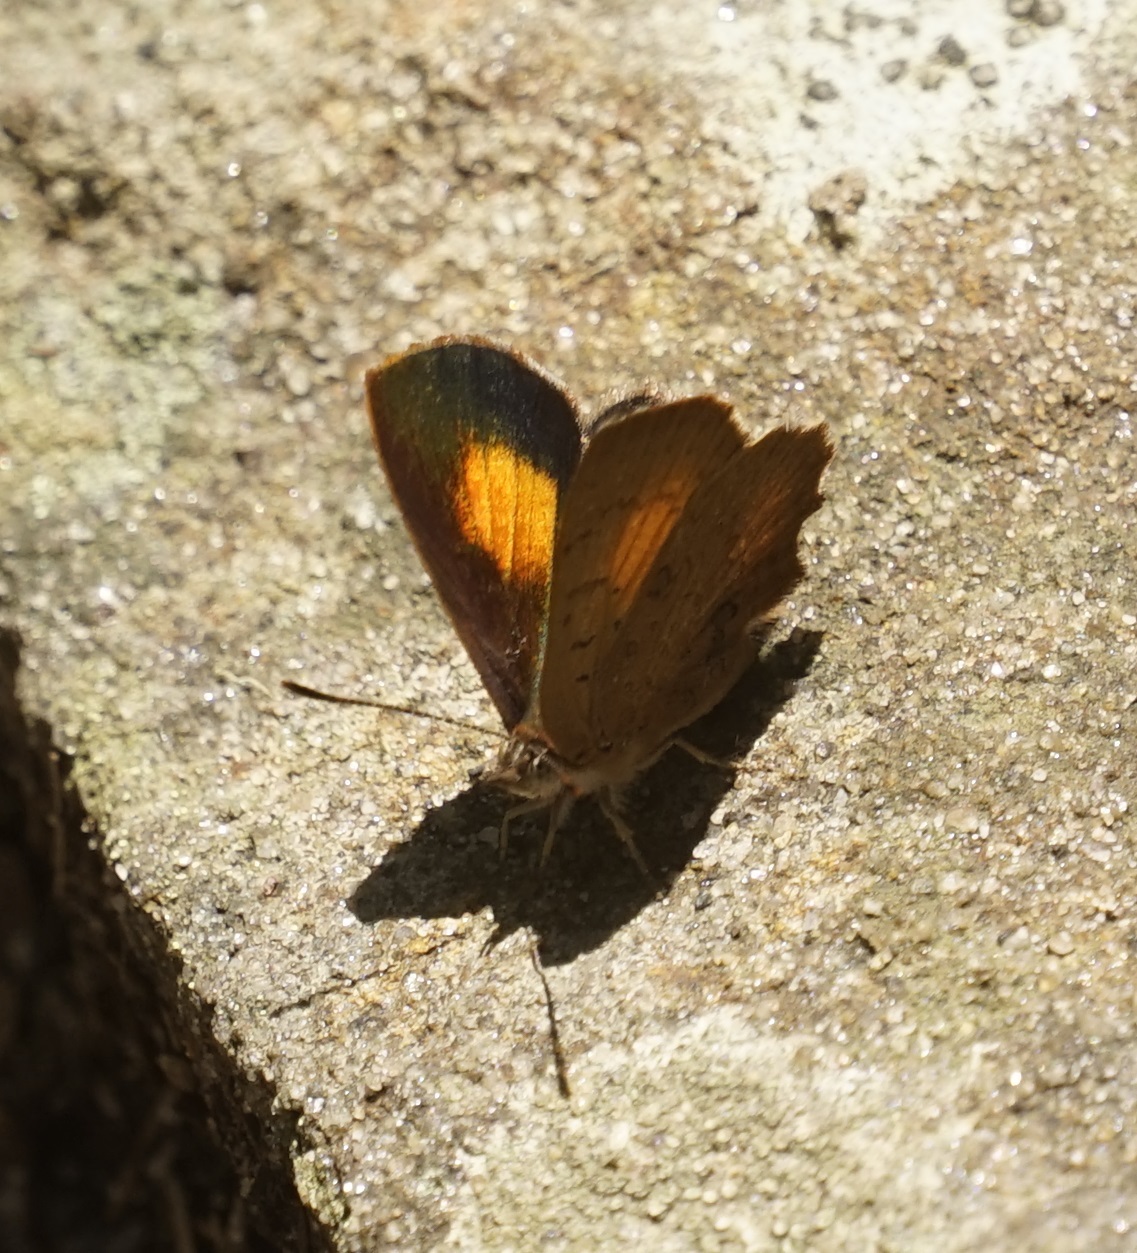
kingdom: Animalia
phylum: Arthropoda
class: Insecta
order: Lepidoptera
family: Lycaenidae
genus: Paralucia
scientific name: Paralucia aurifer
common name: Bright copper
